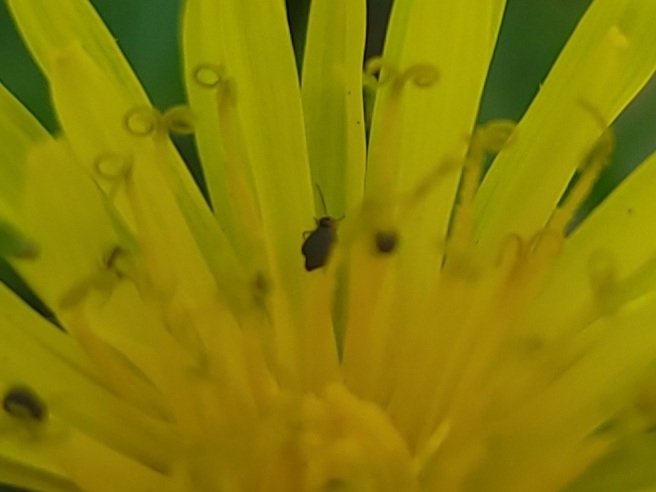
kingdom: Animalia
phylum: Arthropoda
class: Collembola
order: Symphypleona
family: Bourletiellidae
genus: Bourletiella
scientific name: Bourletiella hortensis
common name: Garden springtail
